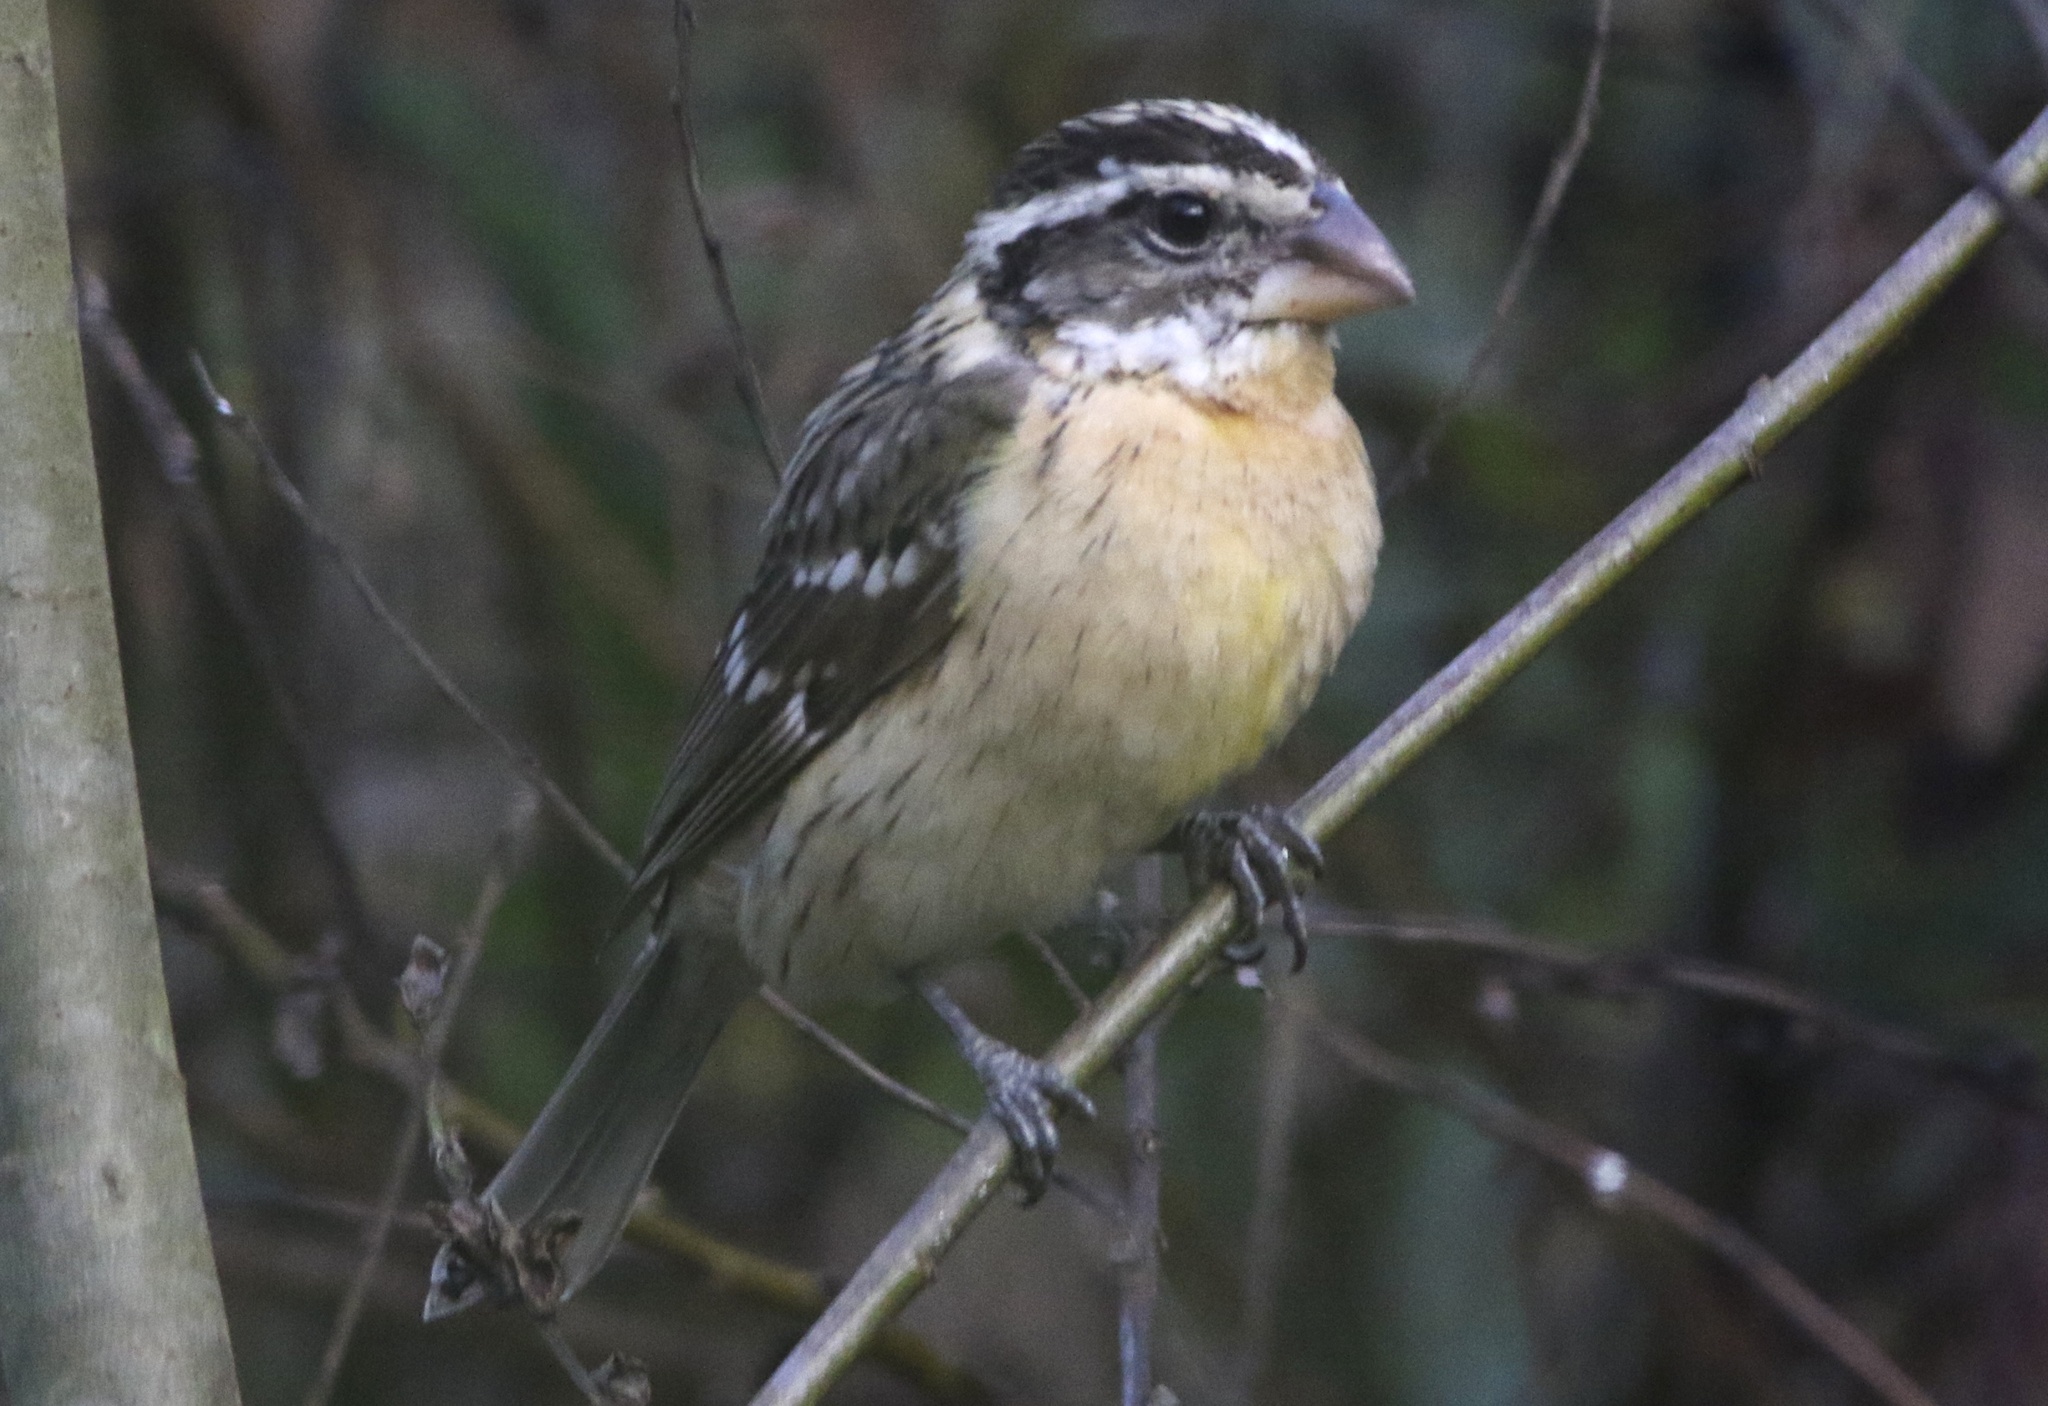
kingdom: Animalia
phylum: Chordata
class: Aves
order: Passeriformes
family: Cardinalidae
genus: Pheucticus
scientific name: Pheucticus melanocephalus
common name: Black-headed grosbeak
